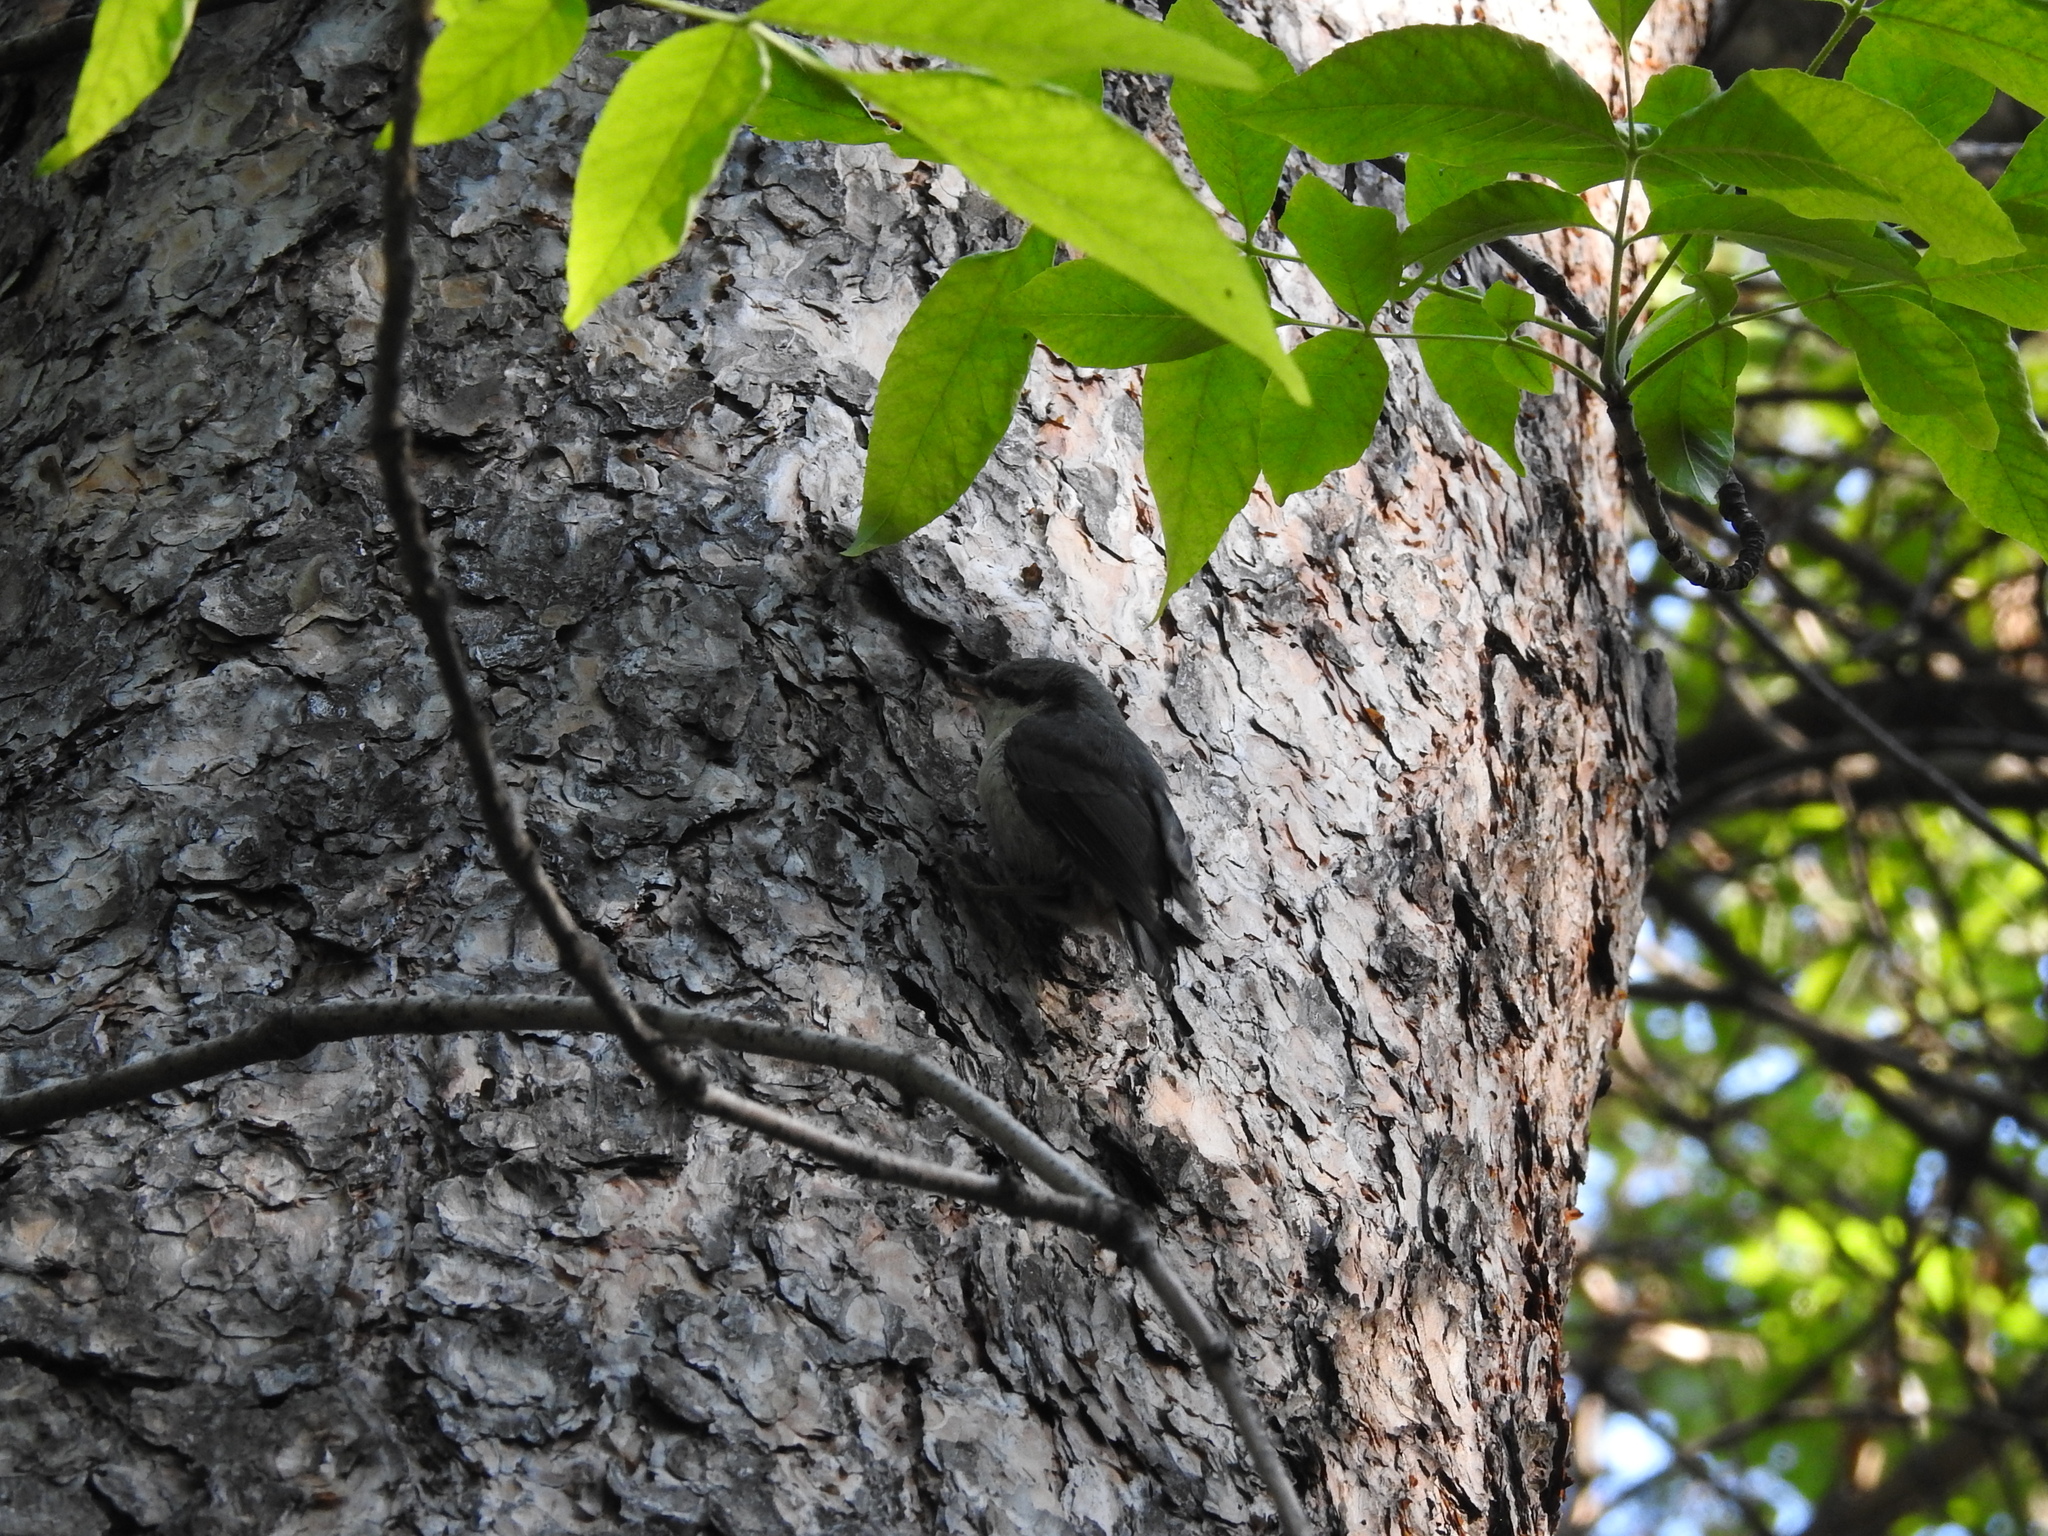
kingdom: Animalia
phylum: Chordata
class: Aves
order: Passeriformes
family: Sittidae
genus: Sitta
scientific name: Sitta europaea
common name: Eurasian nuthatch
